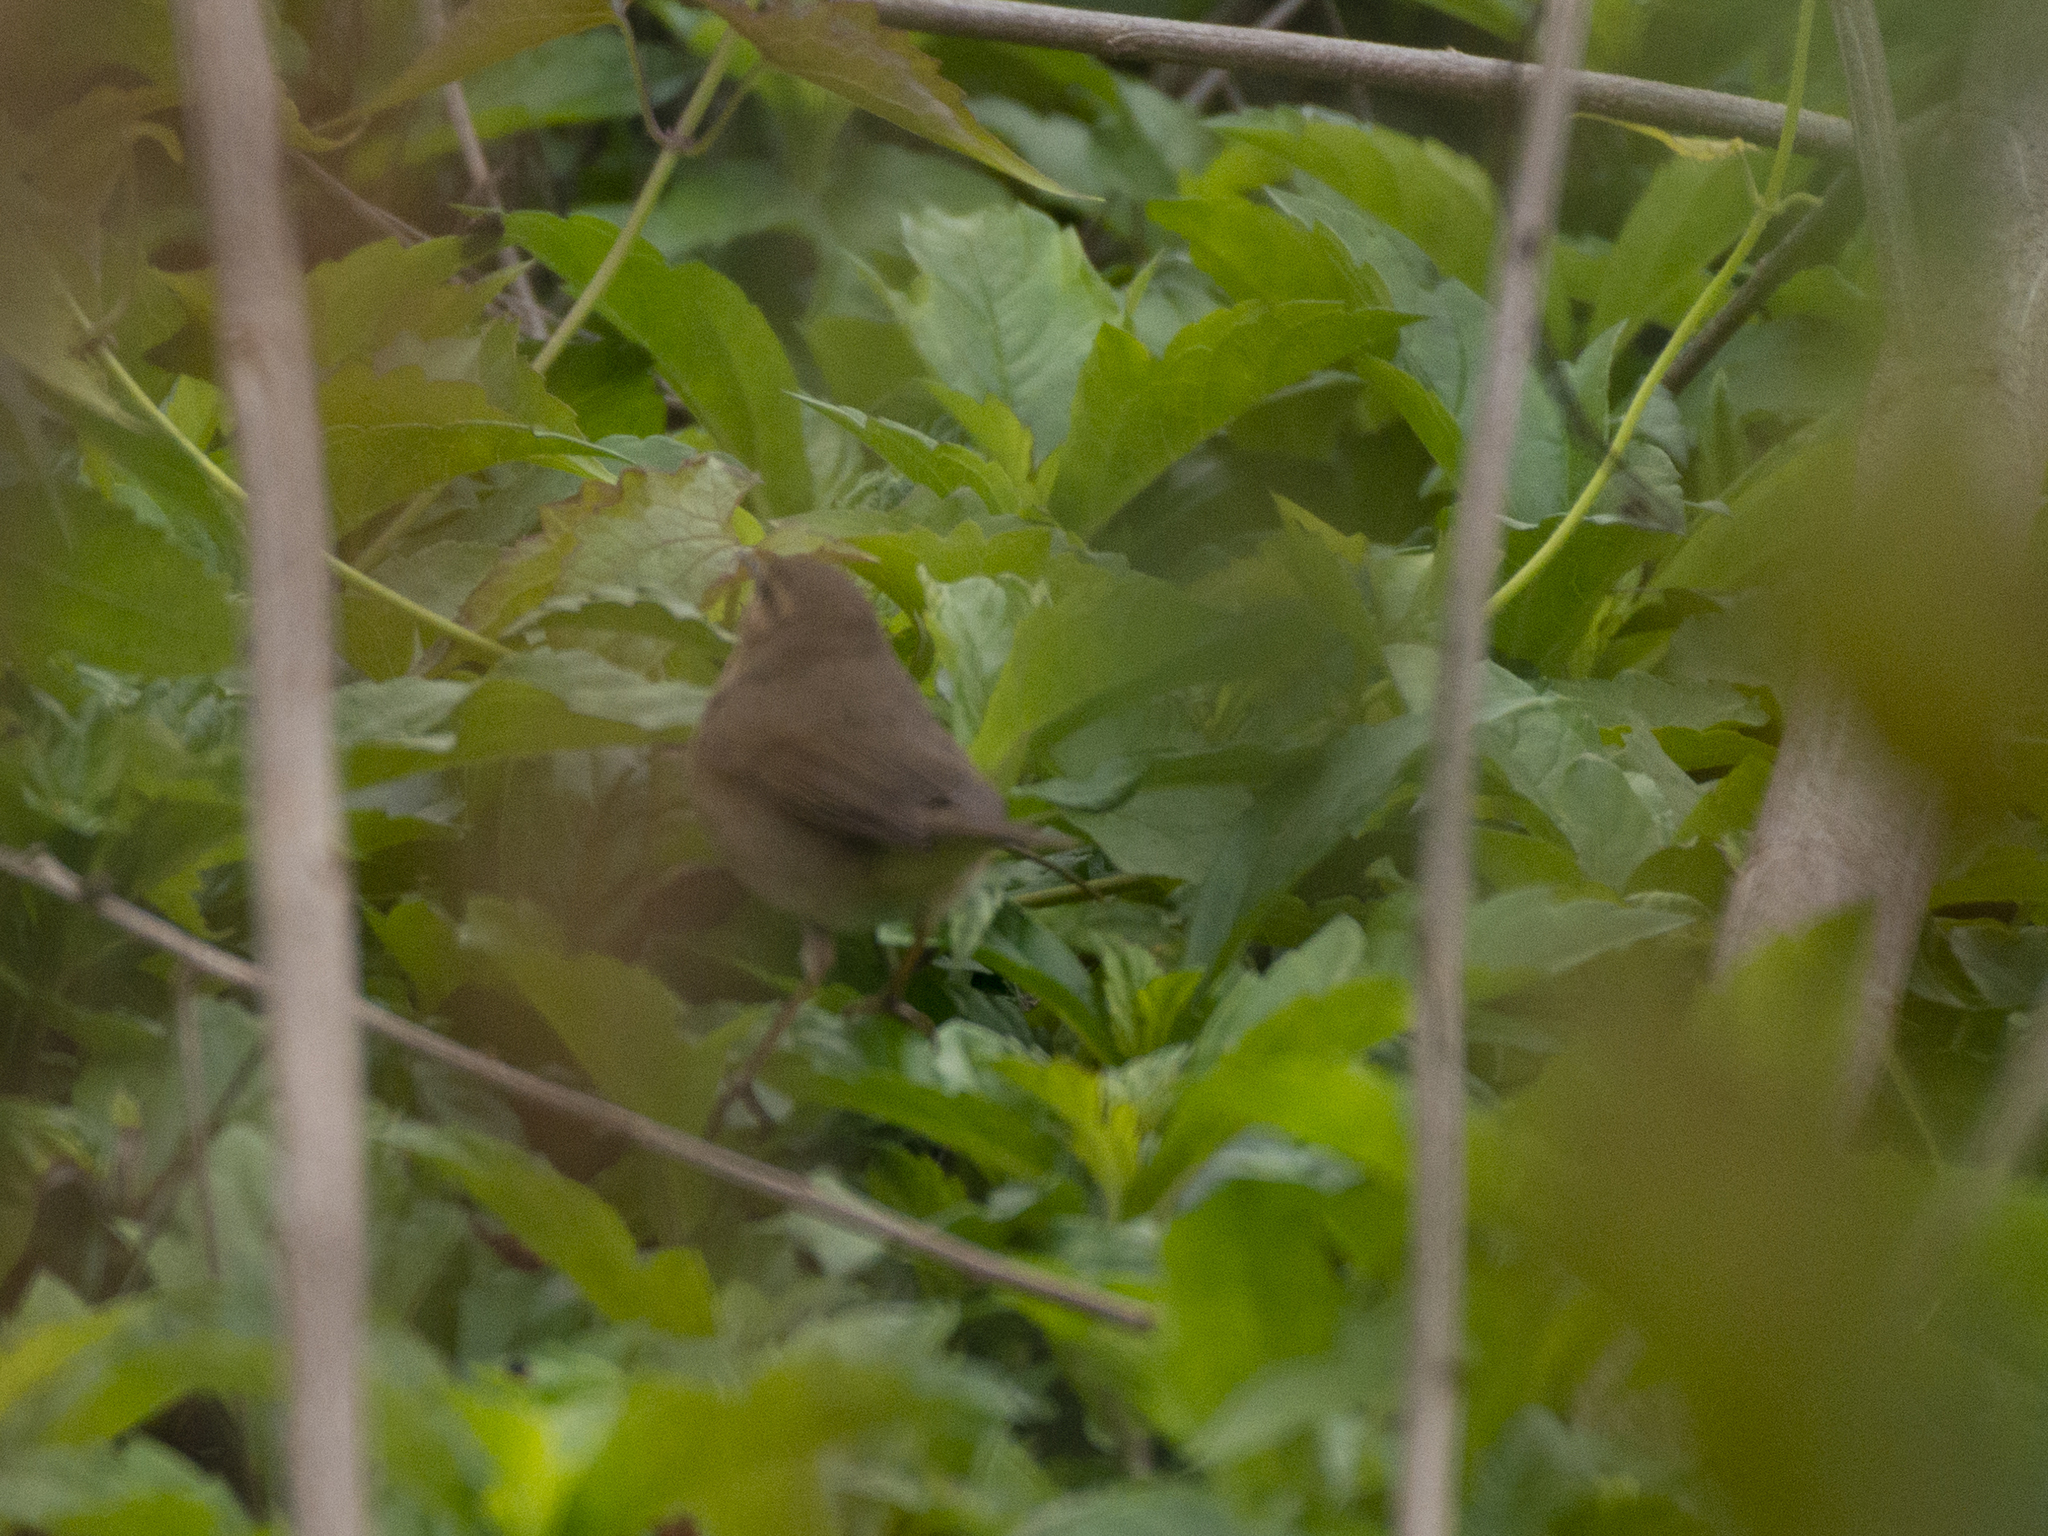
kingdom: Animalia
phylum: Chordata
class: Aves
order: Passeriformes
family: Phylloscopidae
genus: Phylloscopus
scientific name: Phylloscopus fuscatus
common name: Dusky warbler
